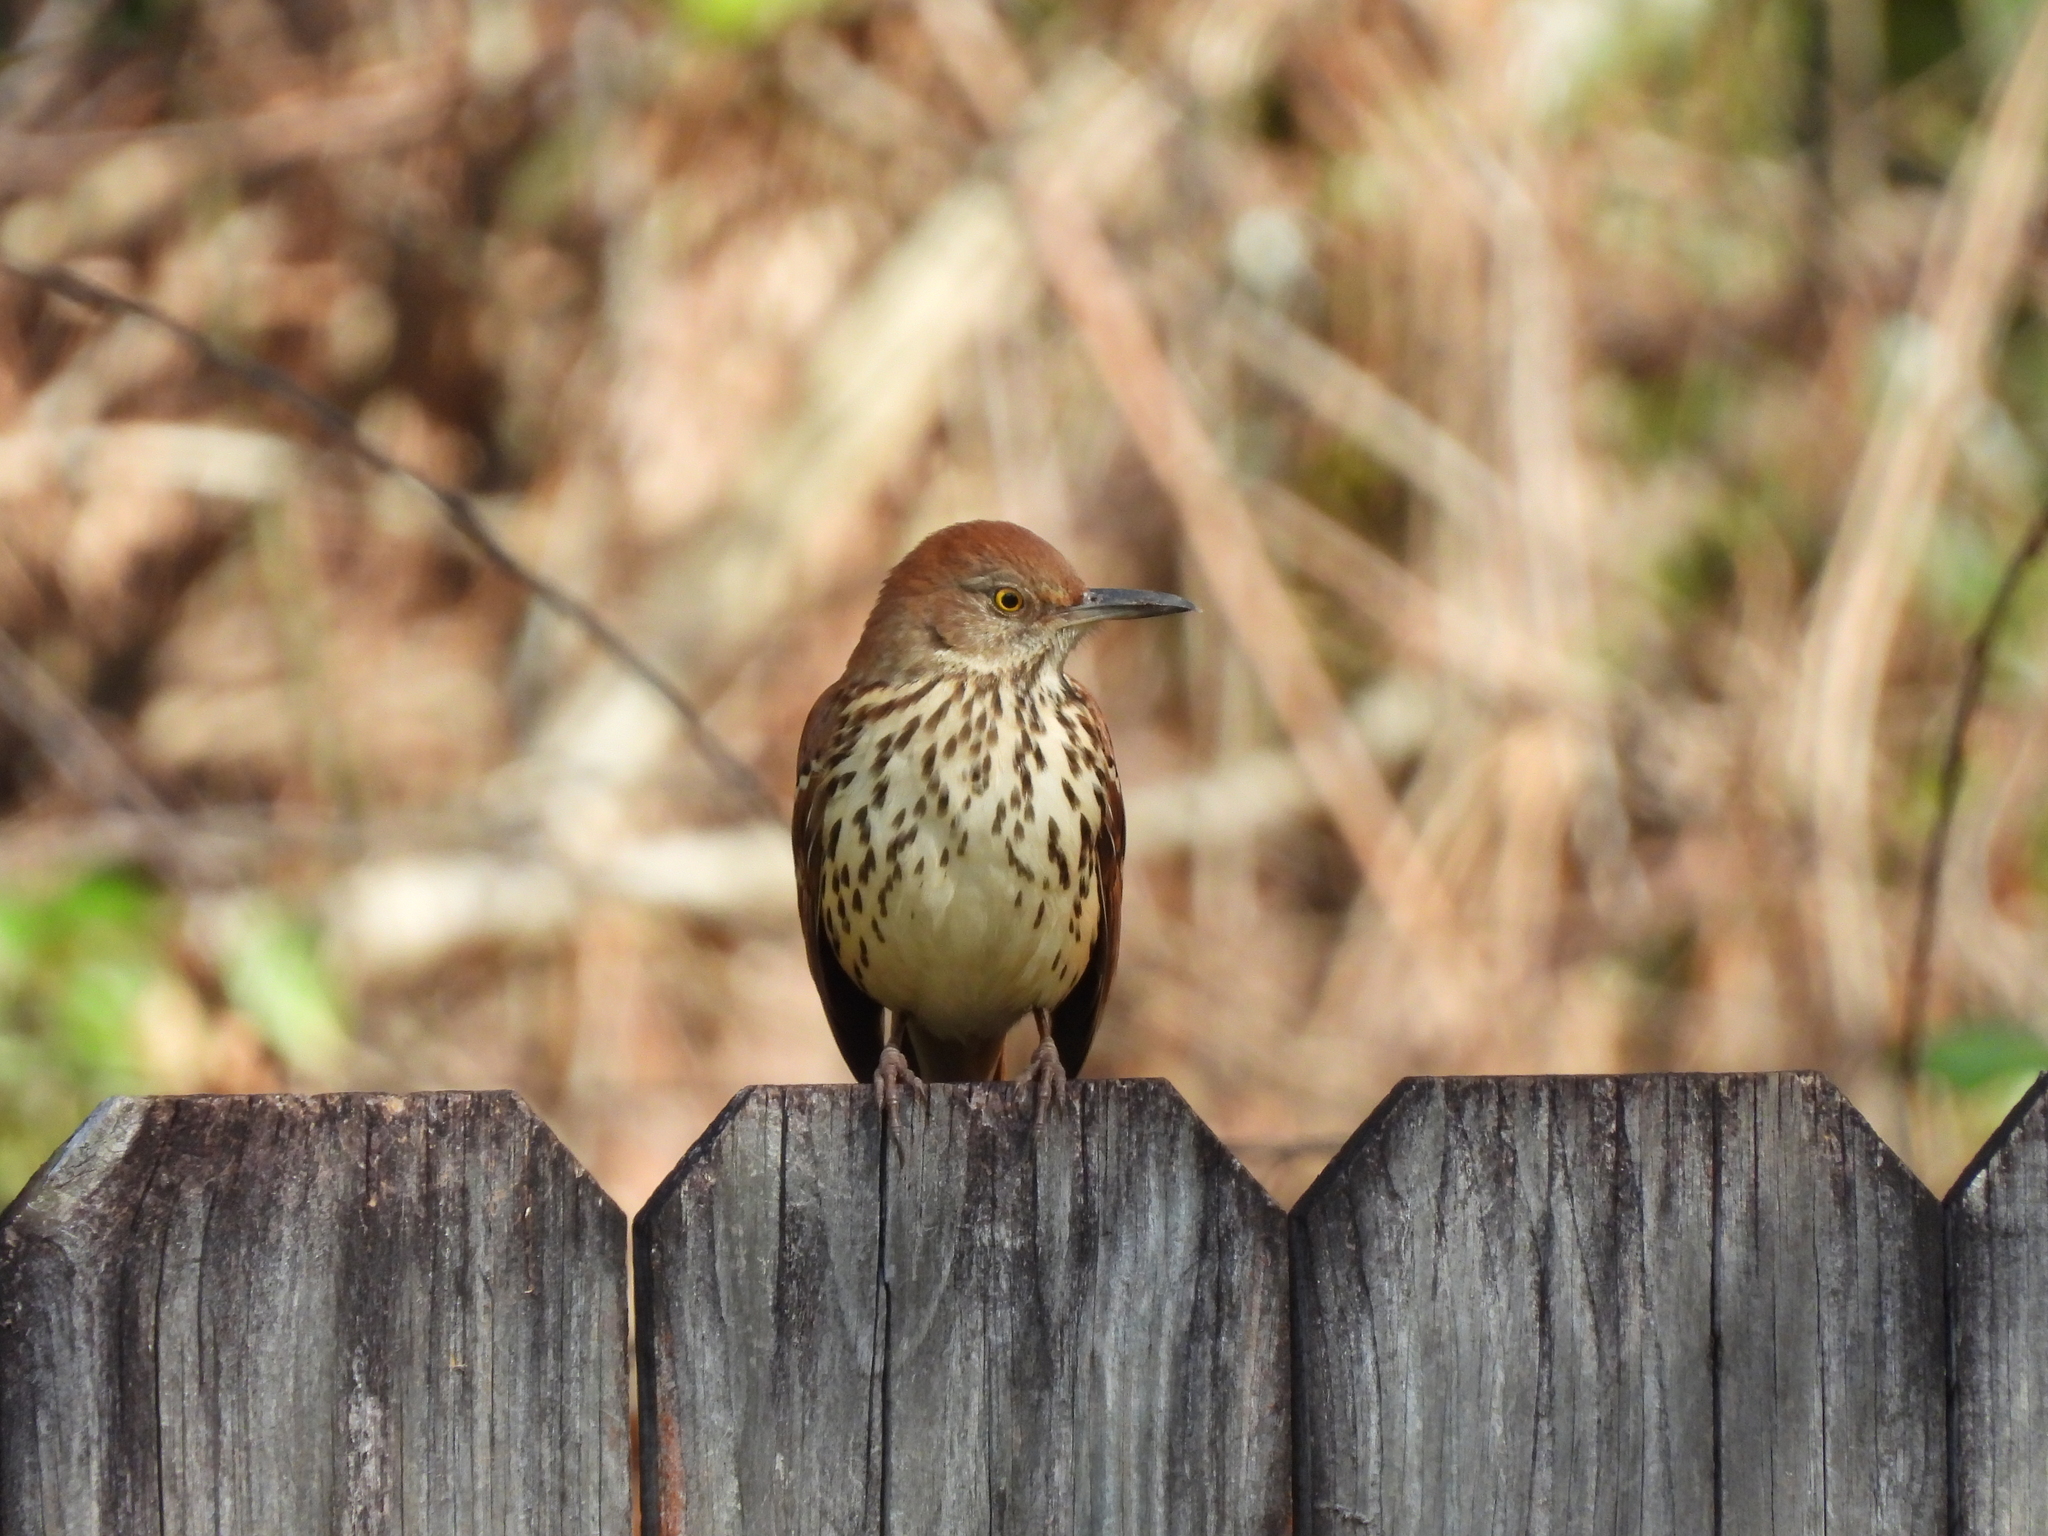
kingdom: Animalia
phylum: Chordata
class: Aves
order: Passeriformes
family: Mimidae
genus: Toxostoma
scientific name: Toxostoma rufum
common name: Brown thrasher
